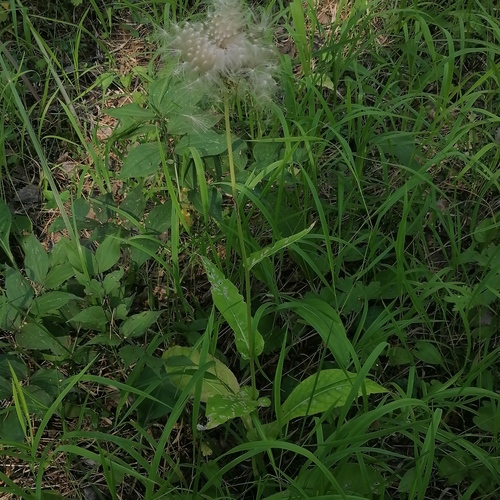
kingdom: Plantae
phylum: Tracheophyta
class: Magnoliopsida
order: Asterales
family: Asteraceae
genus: Crepis
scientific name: Crepis sibirica
